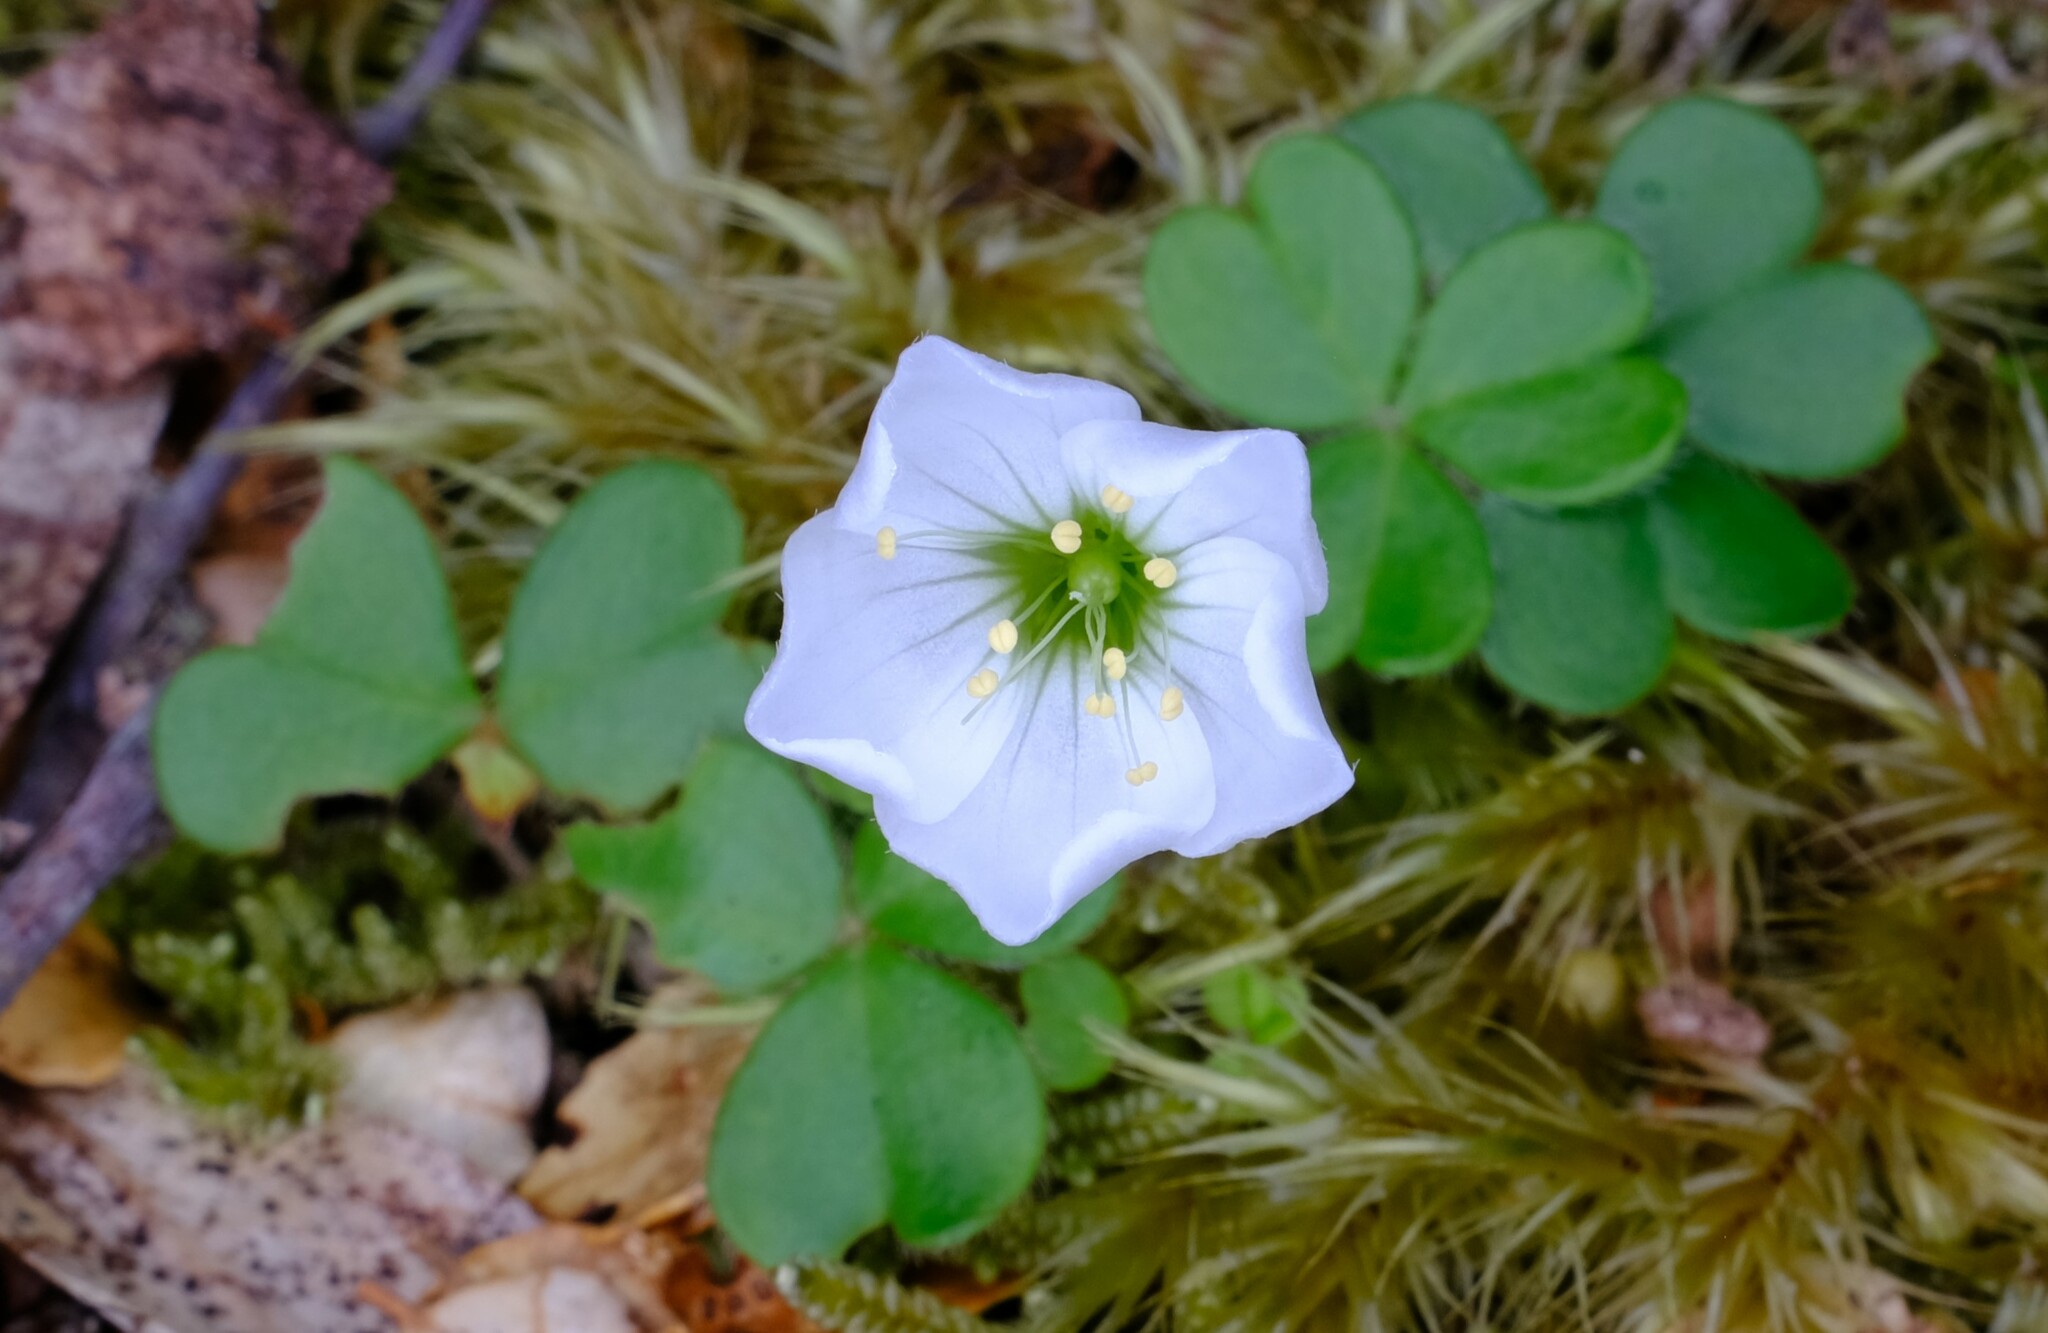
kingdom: Plantae
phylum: Tracheophyta
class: Magnoliopsida
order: Oxalidales
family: Oxalidaceae
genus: Oxalis
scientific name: Oxalis magellanica
